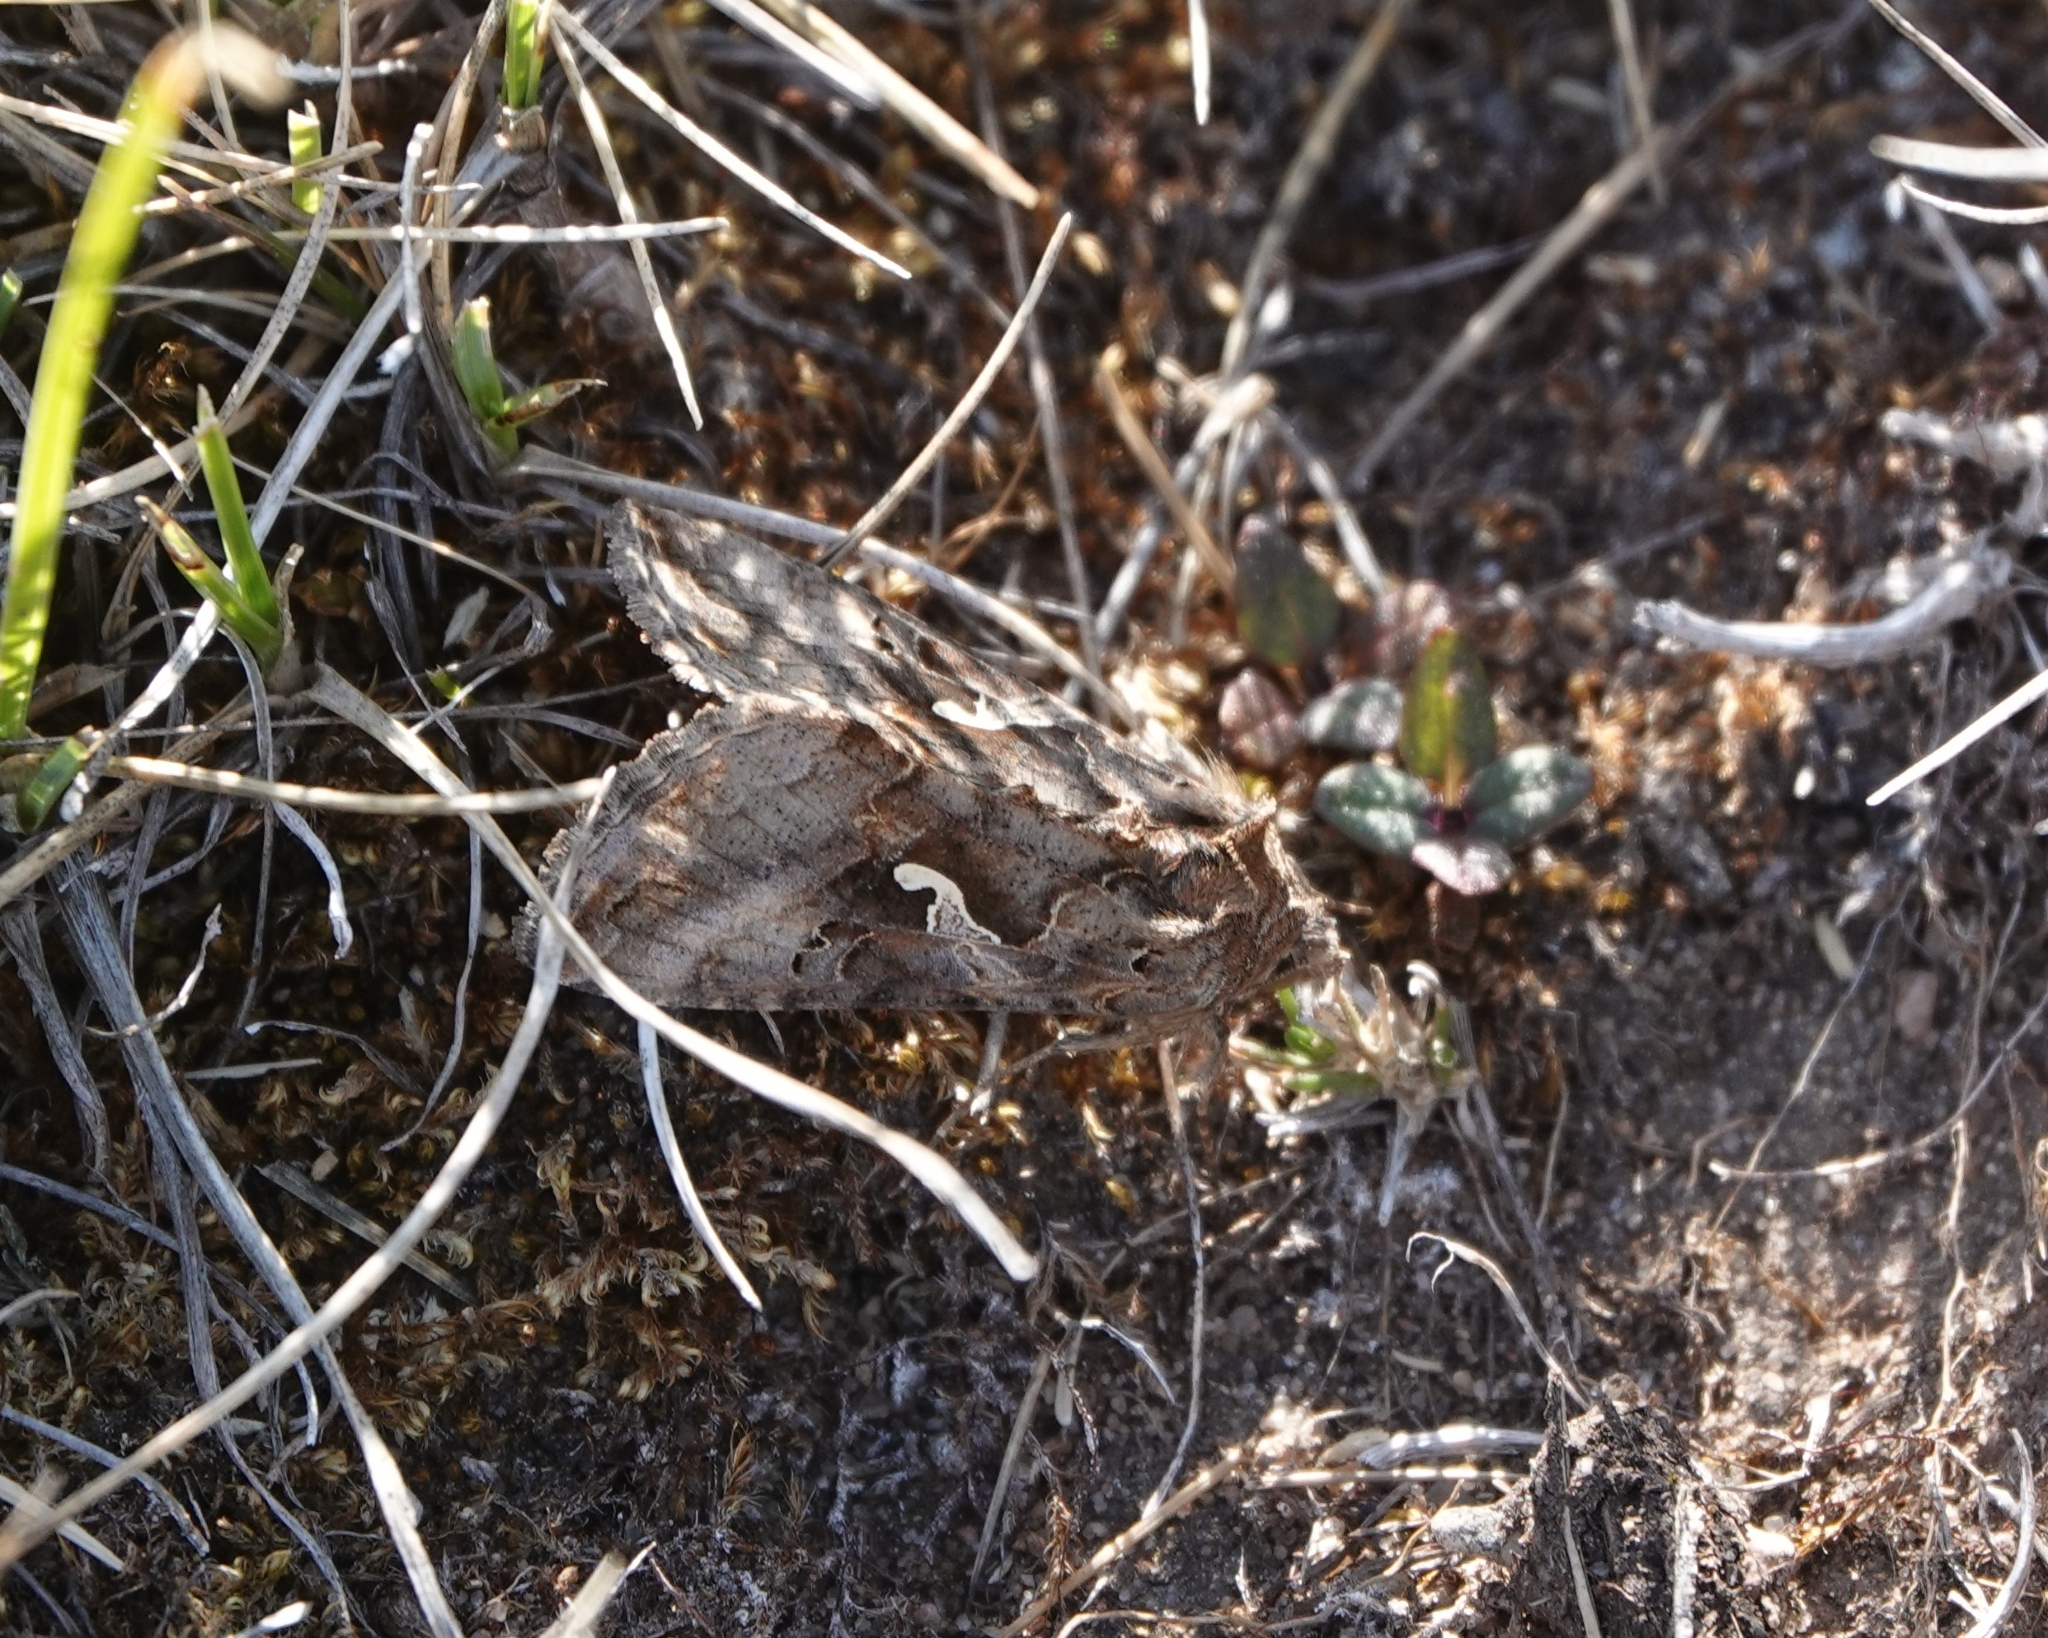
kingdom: Animalia
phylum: Arthropoda
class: Insecta
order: Lepidoptera
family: Noctuidae
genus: Autographa
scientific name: Autographa gamma
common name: Silver y
